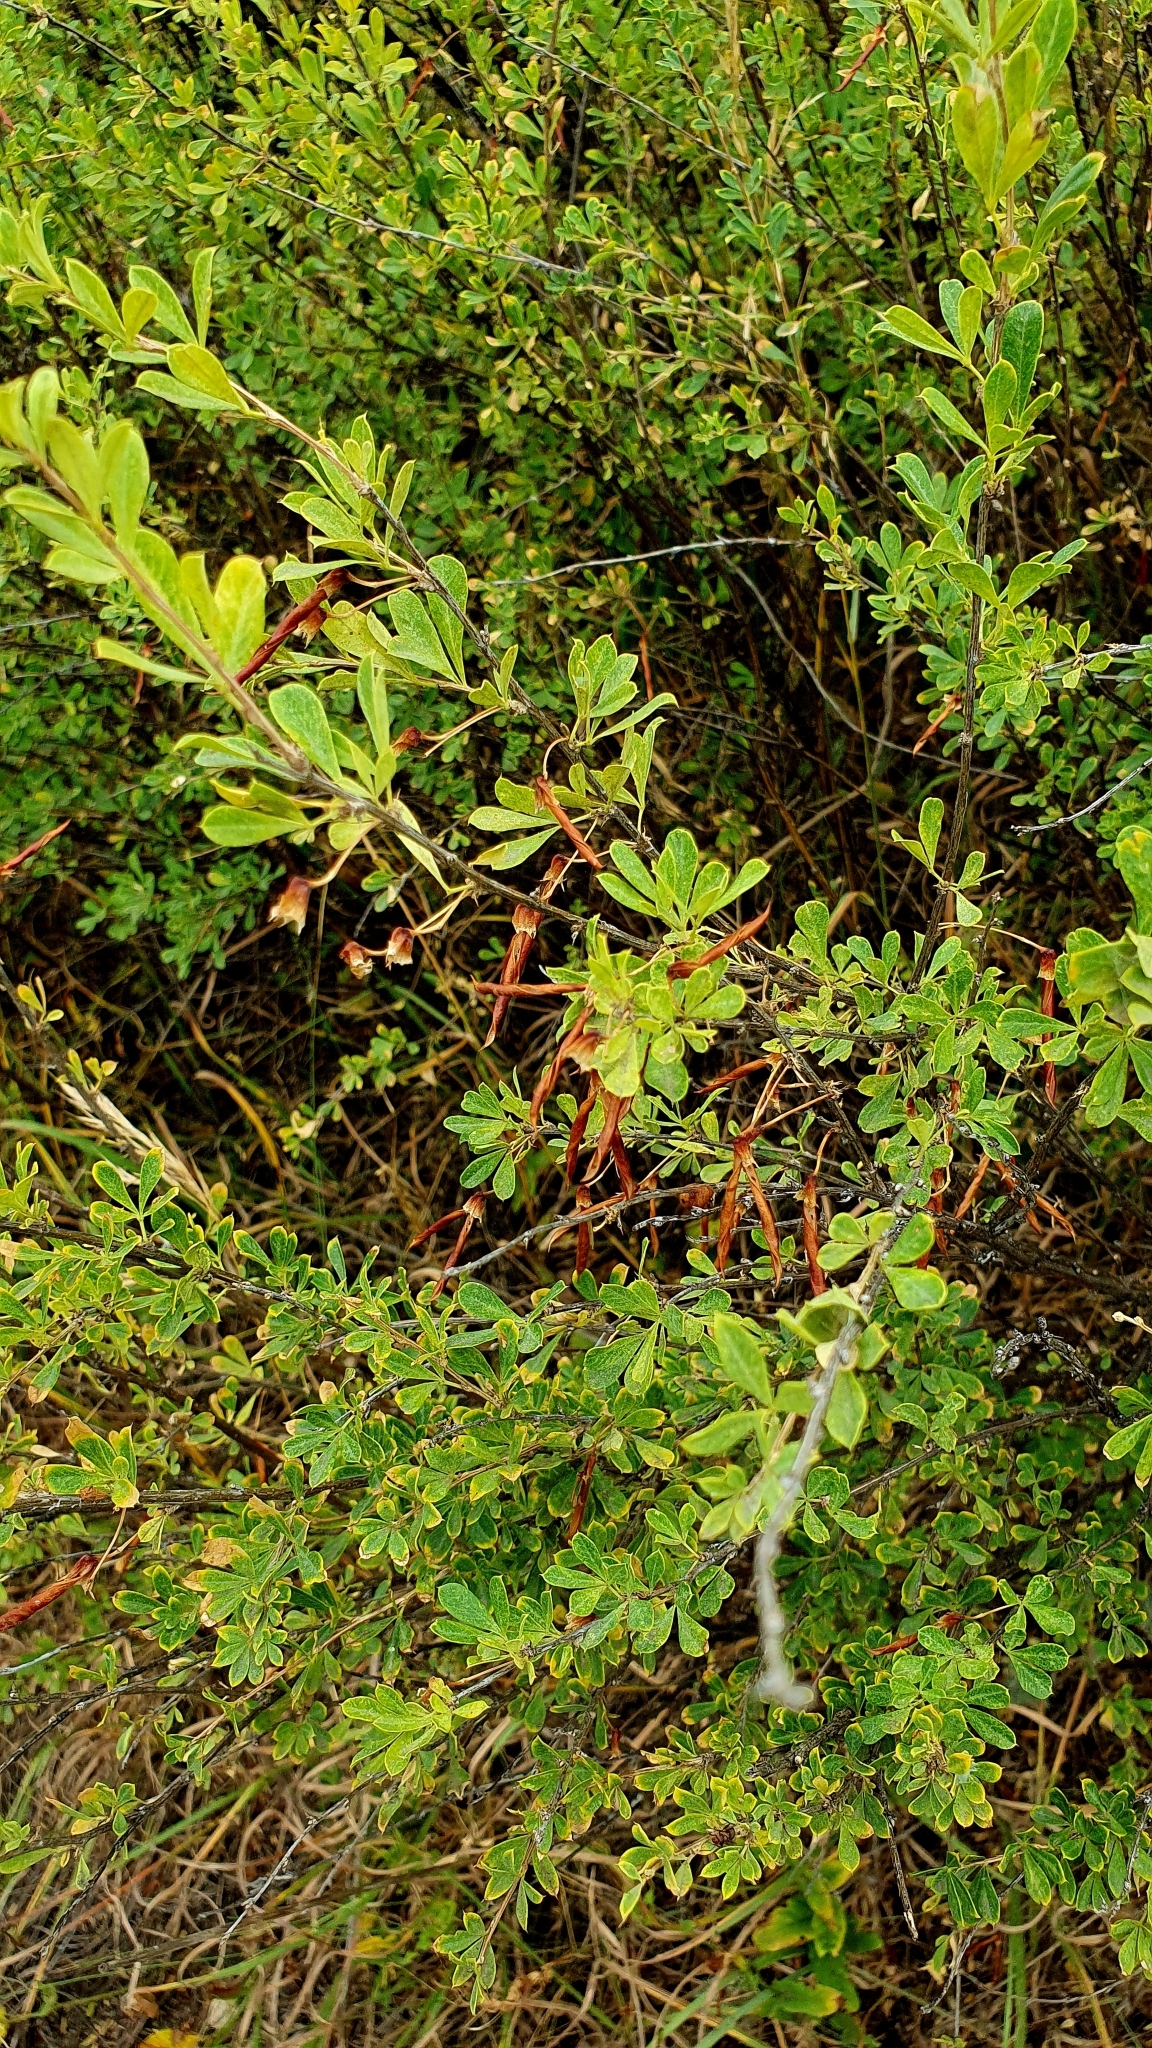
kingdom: Plantae
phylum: Tracheophyta
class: Magnoliopsida
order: Fabales
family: Fabaceae
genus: Caragana
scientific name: Caragana frutex
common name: Russian peashrub
